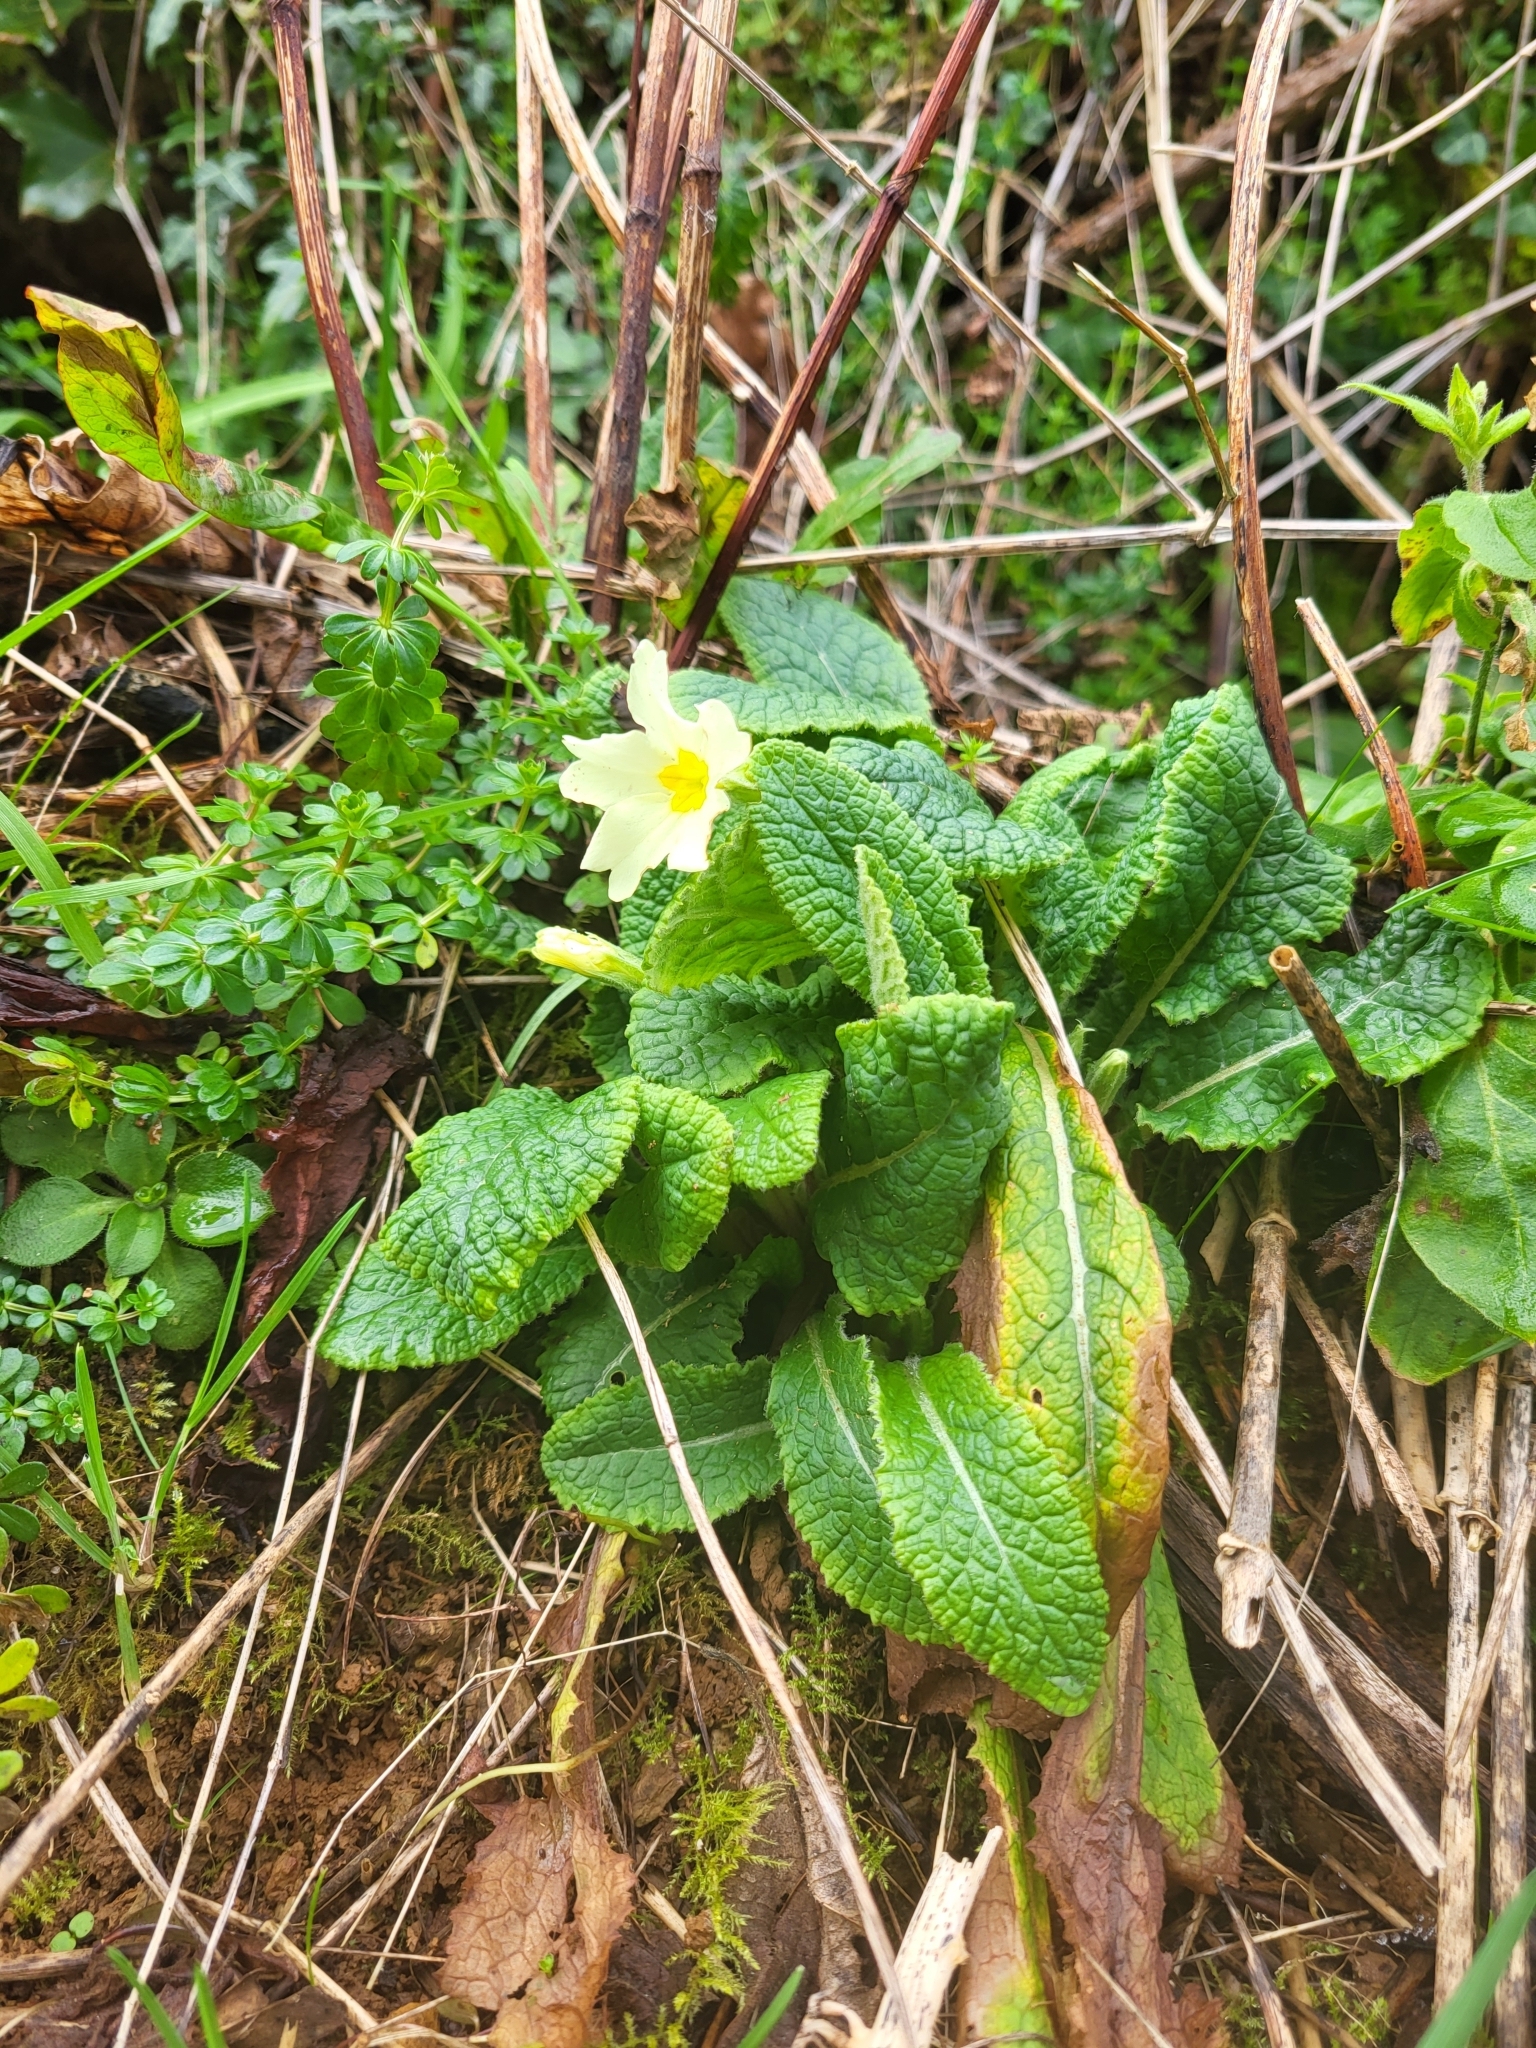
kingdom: Plantae
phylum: Tracheophyta
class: Magnoliopsida
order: Ericales
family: Primulaceae
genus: Primula
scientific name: Primula vulgaris
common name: Primrose
